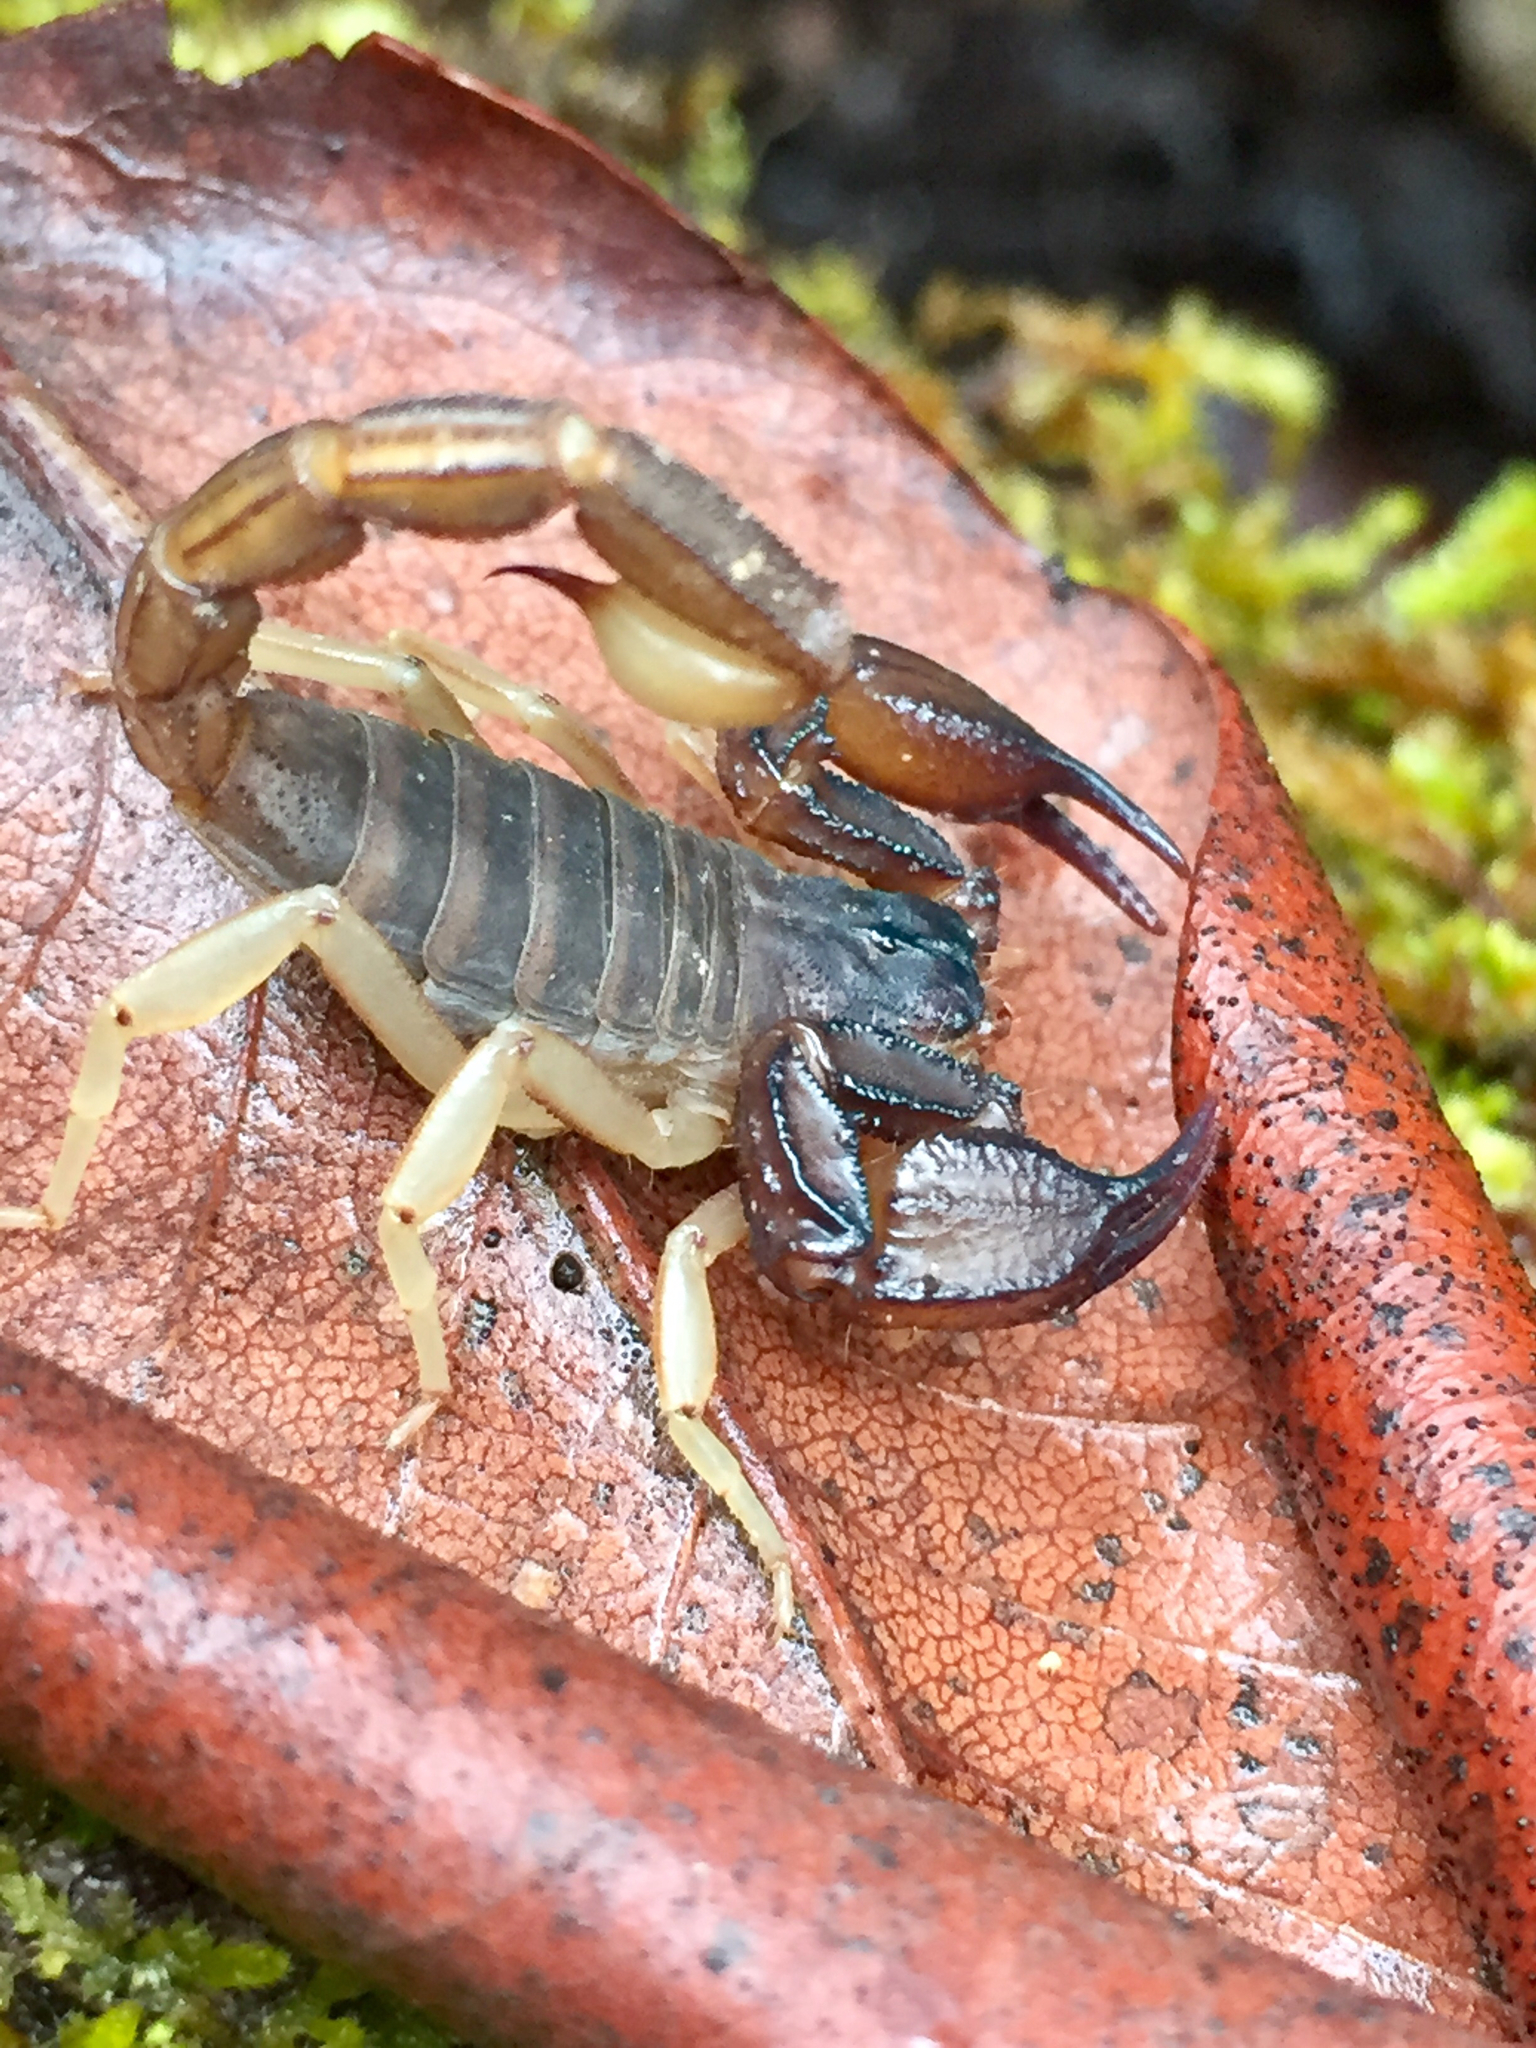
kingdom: Animalia
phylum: Arthropoda
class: Arachnida
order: Scorpiones
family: Chactidae
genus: Uroctonus
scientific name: Uroctonus mordax
